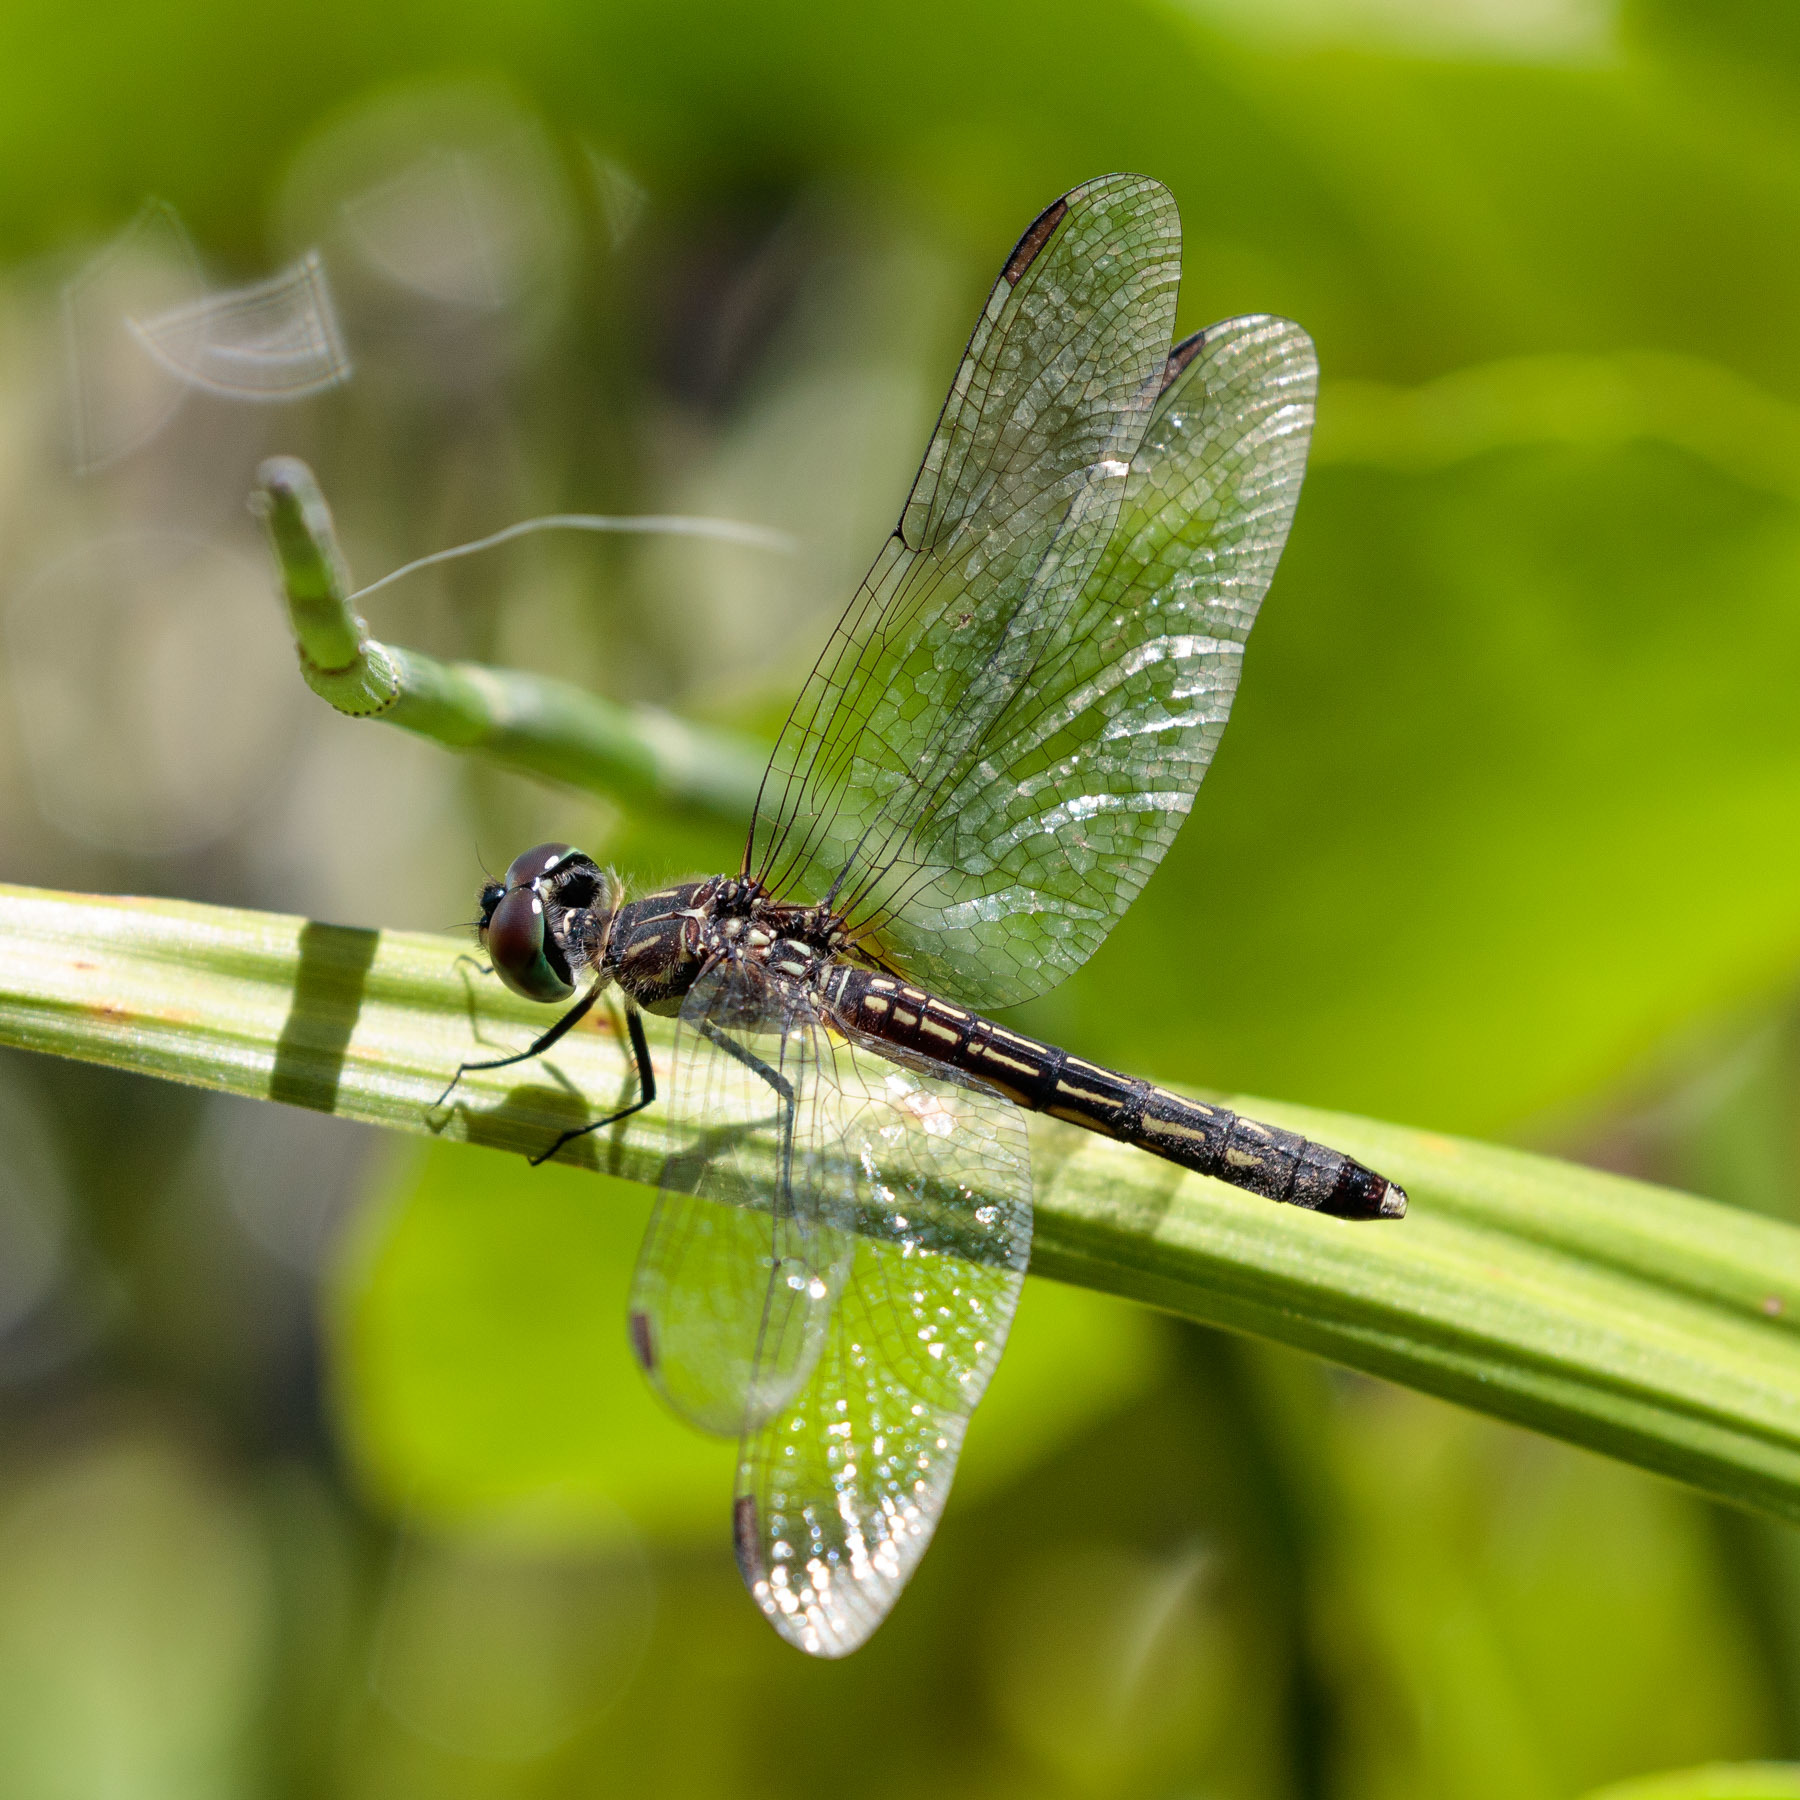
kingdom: Animalia
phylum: Arthropoda
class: Insecta
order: Odonata
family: Libellulidae
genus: Pachydiplax
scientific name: Pachydiplax longipennis
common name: Blue dasher
